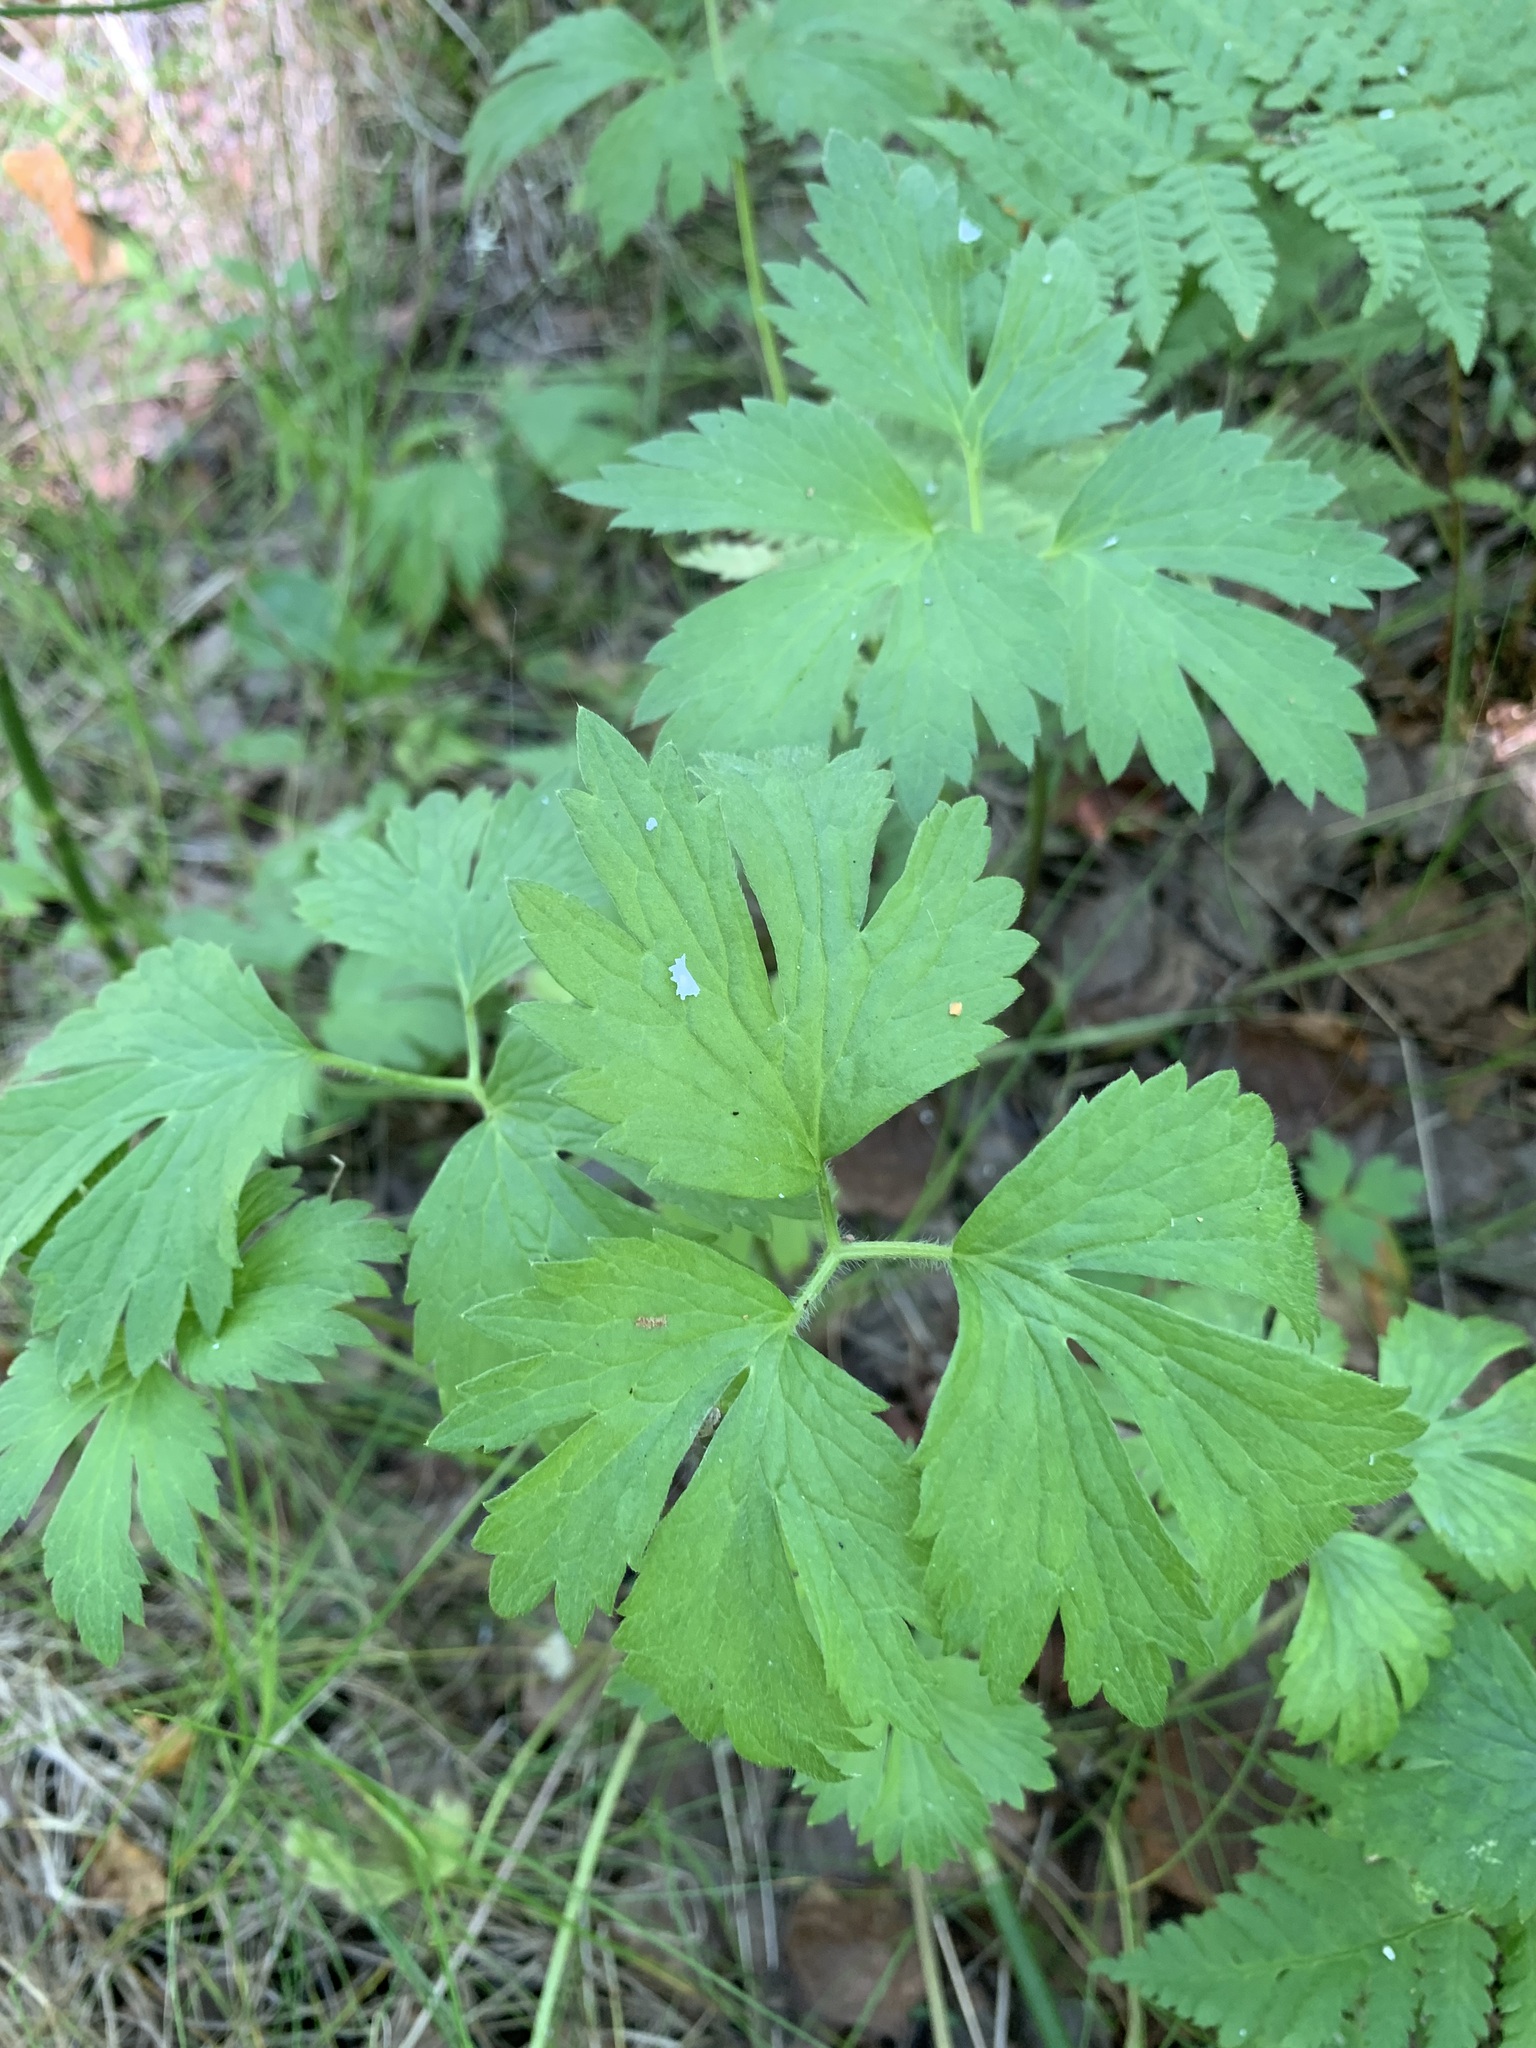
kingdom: Plantae
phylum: Tracheophyta
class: Magnoliopsida
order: Ranunculales
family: Ranunculaceae
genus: Ranunculus
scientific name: Ranunculus repens
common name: Creeping buttercup
